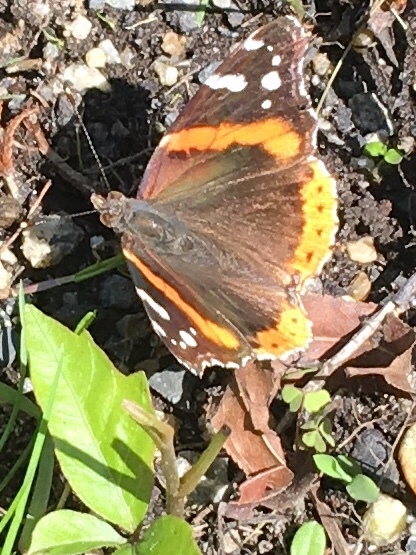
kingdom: Animalia
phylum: Arthropoda
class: Insecta
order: Lepidoptera
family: Nymphalidae
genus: Vanessa
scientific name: Vanessa atalanta
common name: Red admiral
